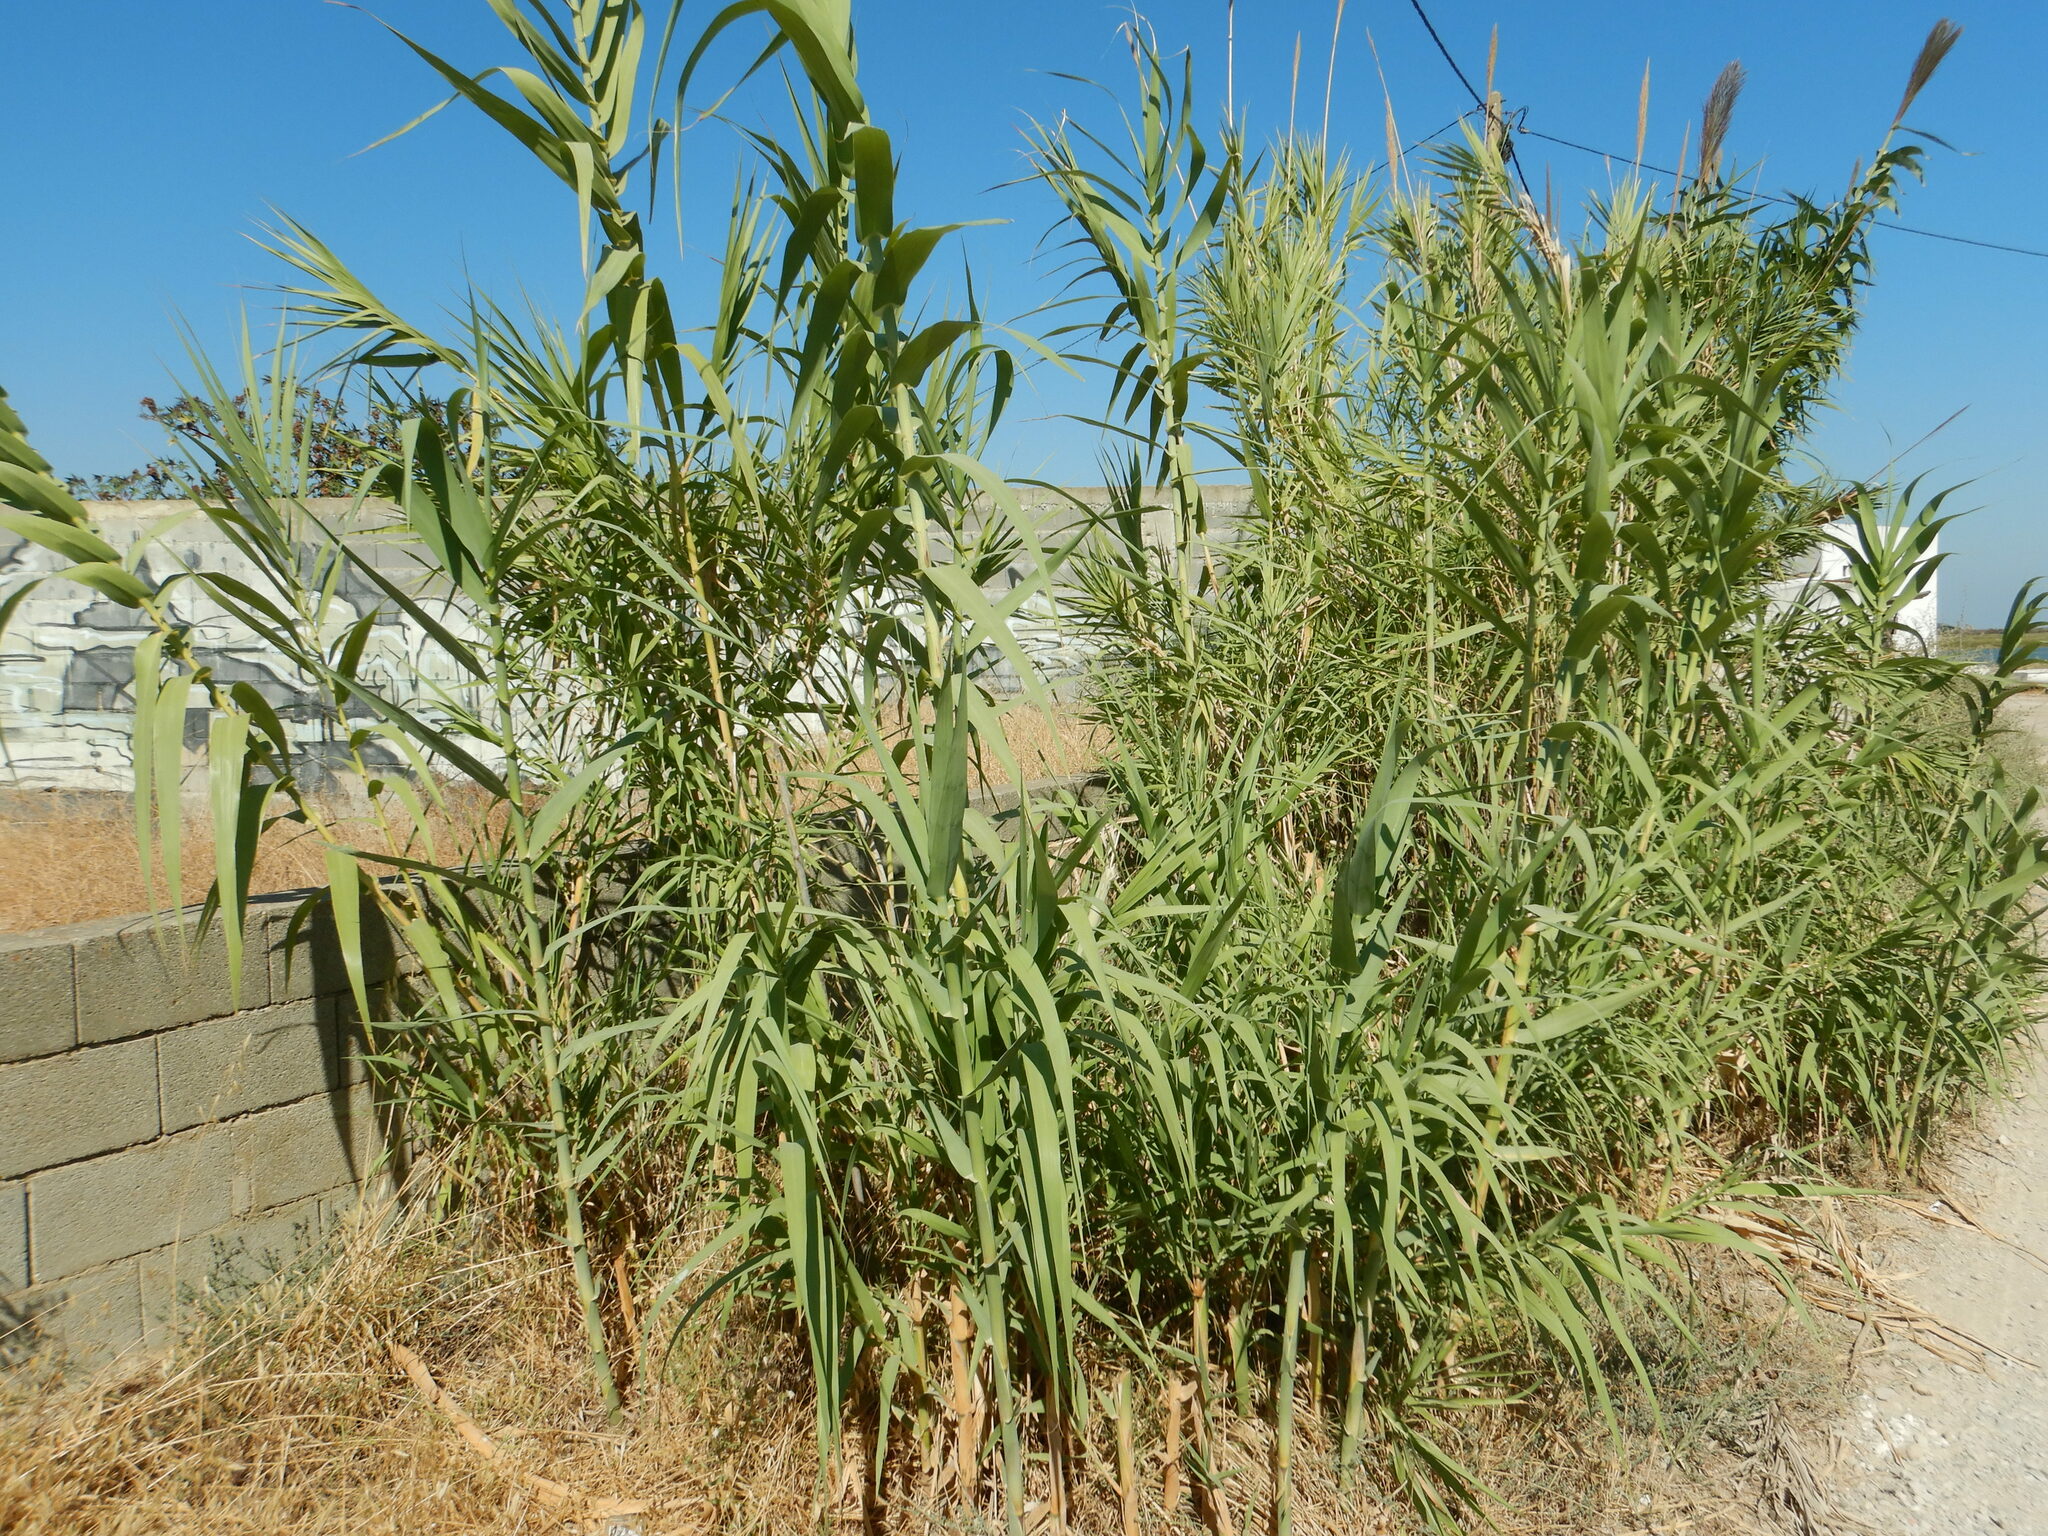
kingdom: Plantae
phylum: Tracheophyta
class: Liliopsida
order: Poales
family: Poaceae
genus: Arundo
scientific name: Arundo donax
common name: Giant reed
